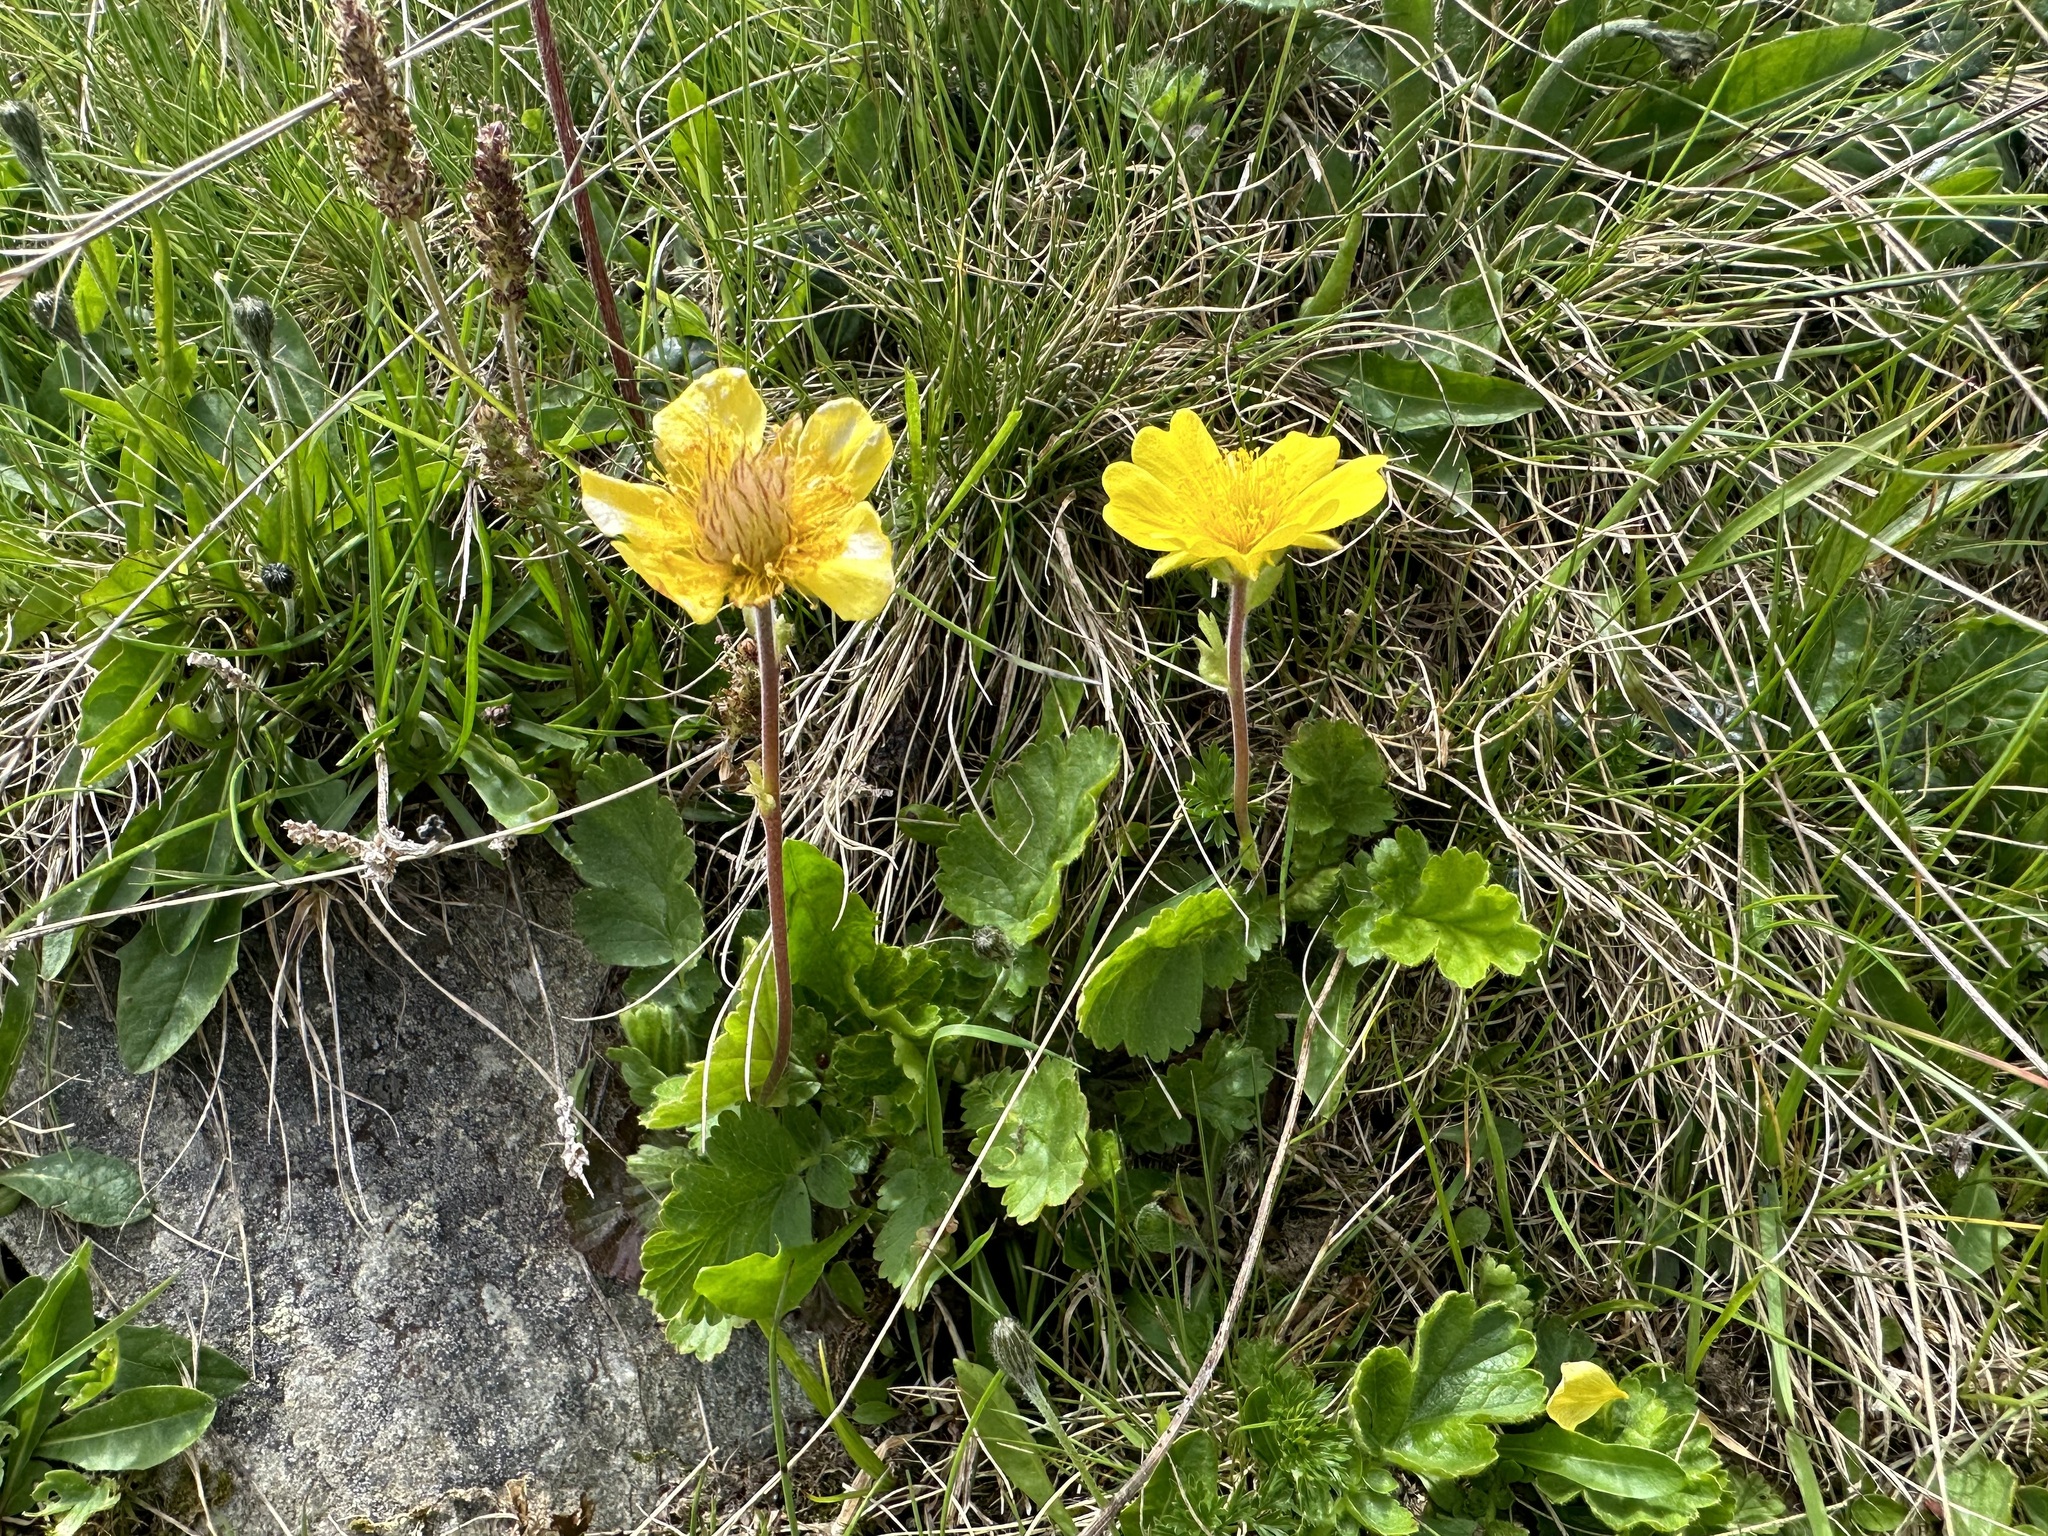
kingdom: Plantae
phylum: Tracheophyta
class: Magnoliopsida
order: Rosales
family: Rosaceae
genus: Geum
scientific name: Geum montanum
